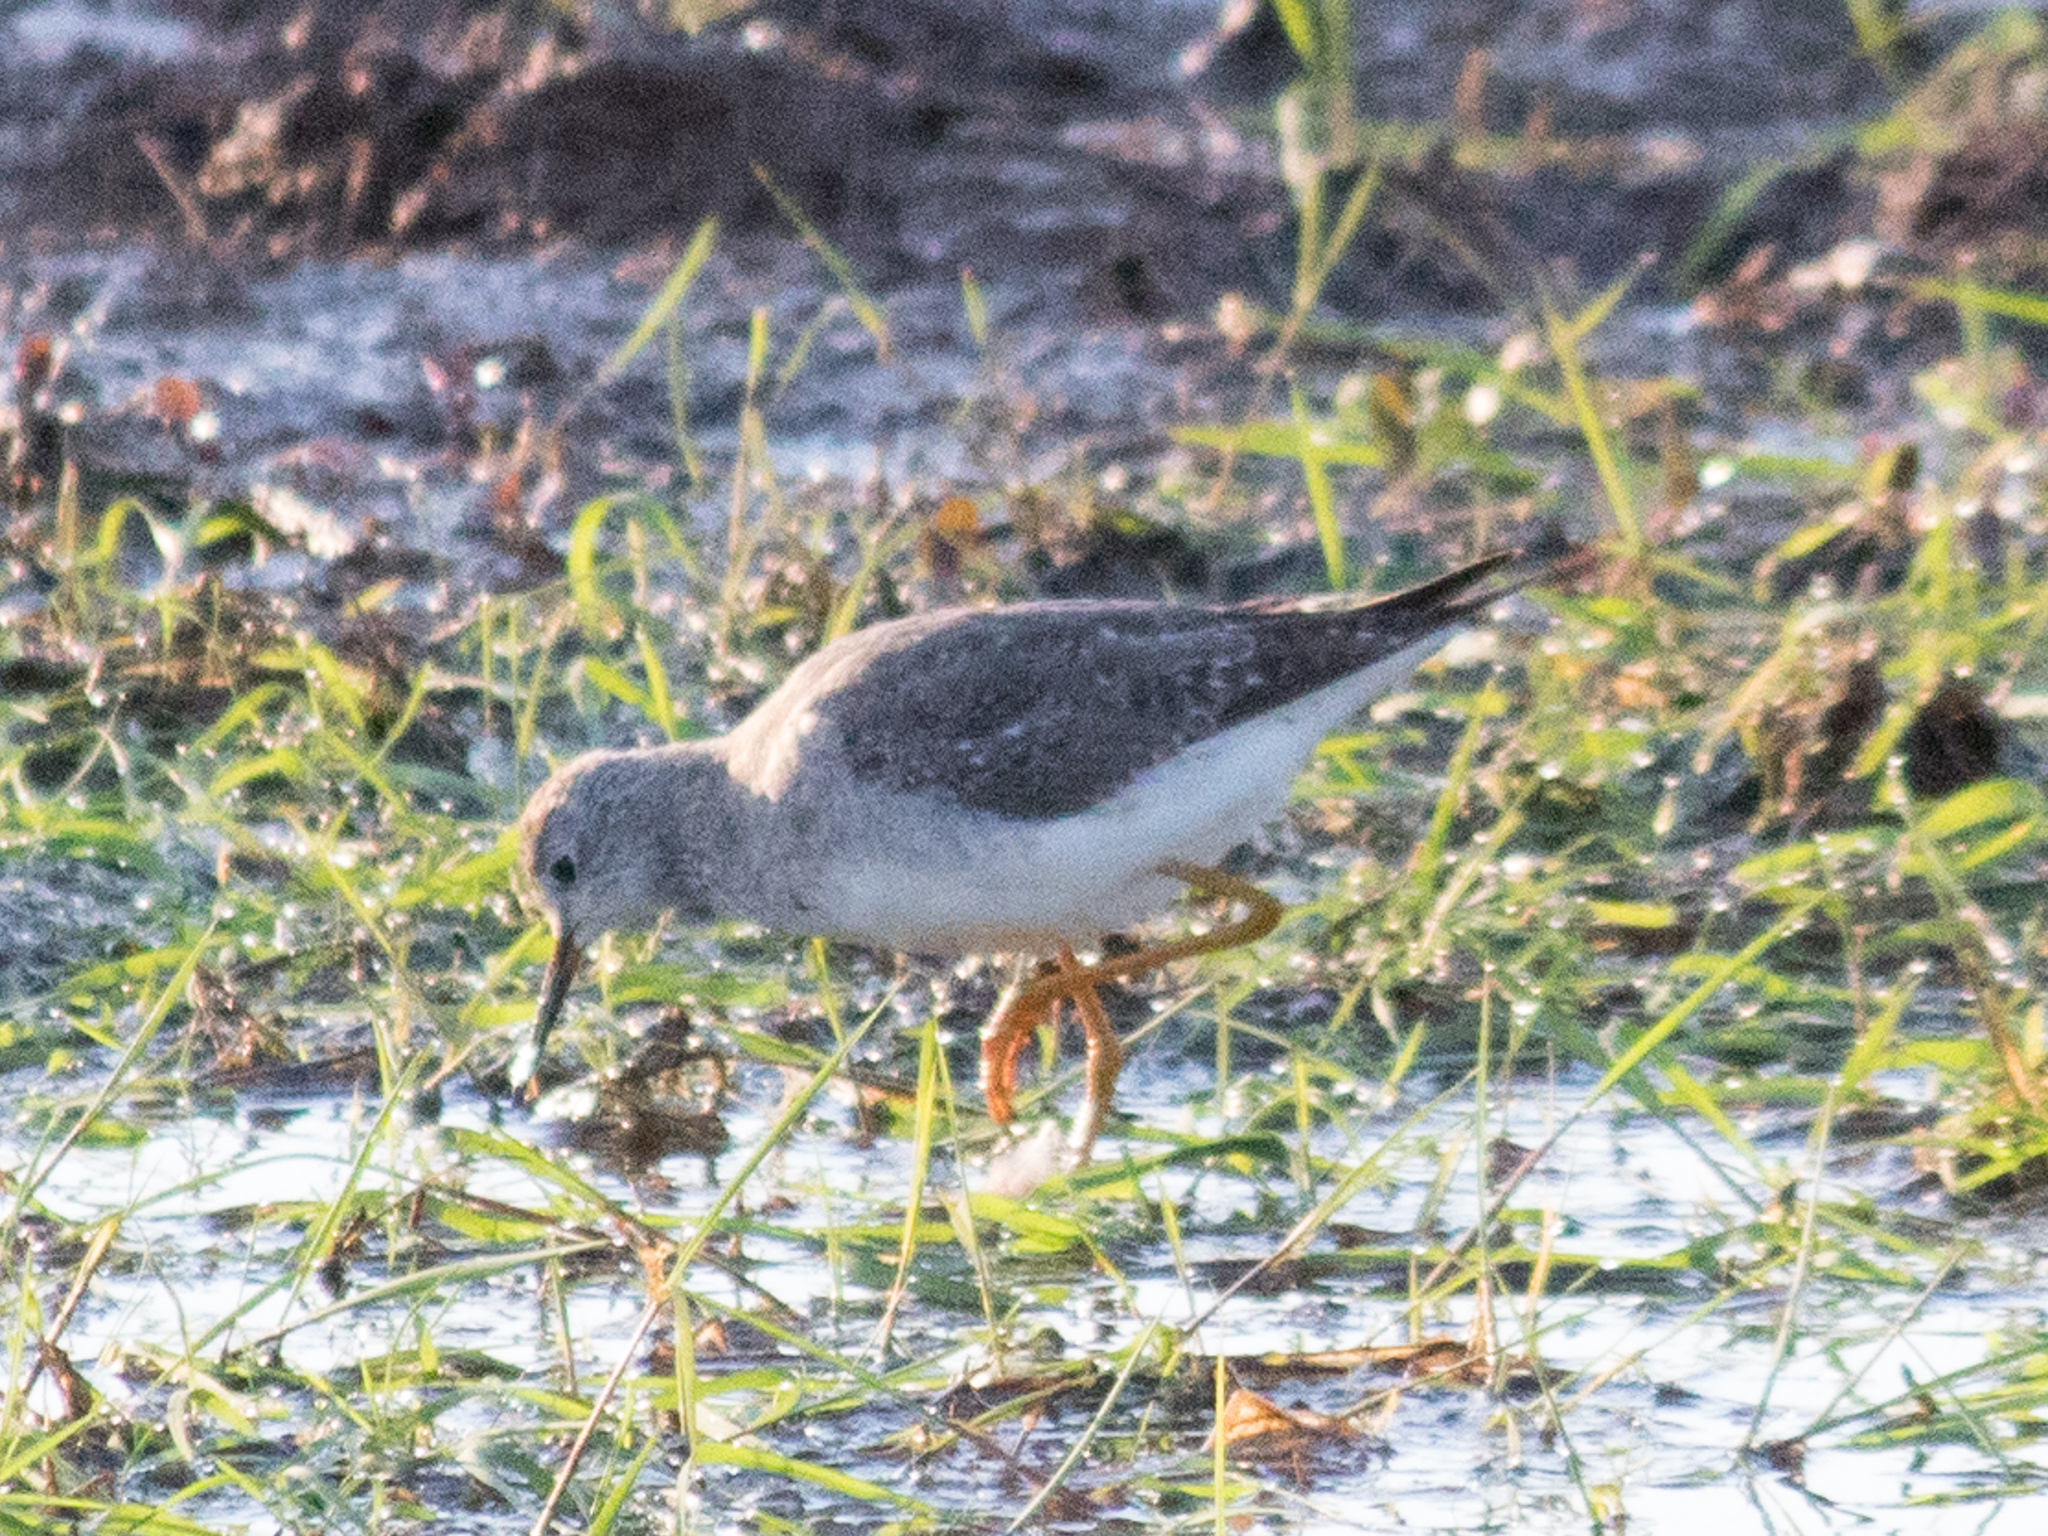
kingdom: Animalia
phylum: Chordata
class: Aves
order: Charadriiformes
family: Scolopacidae
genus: Tringa
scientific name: Tringa flavipes
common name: Lesser yellowlegs
